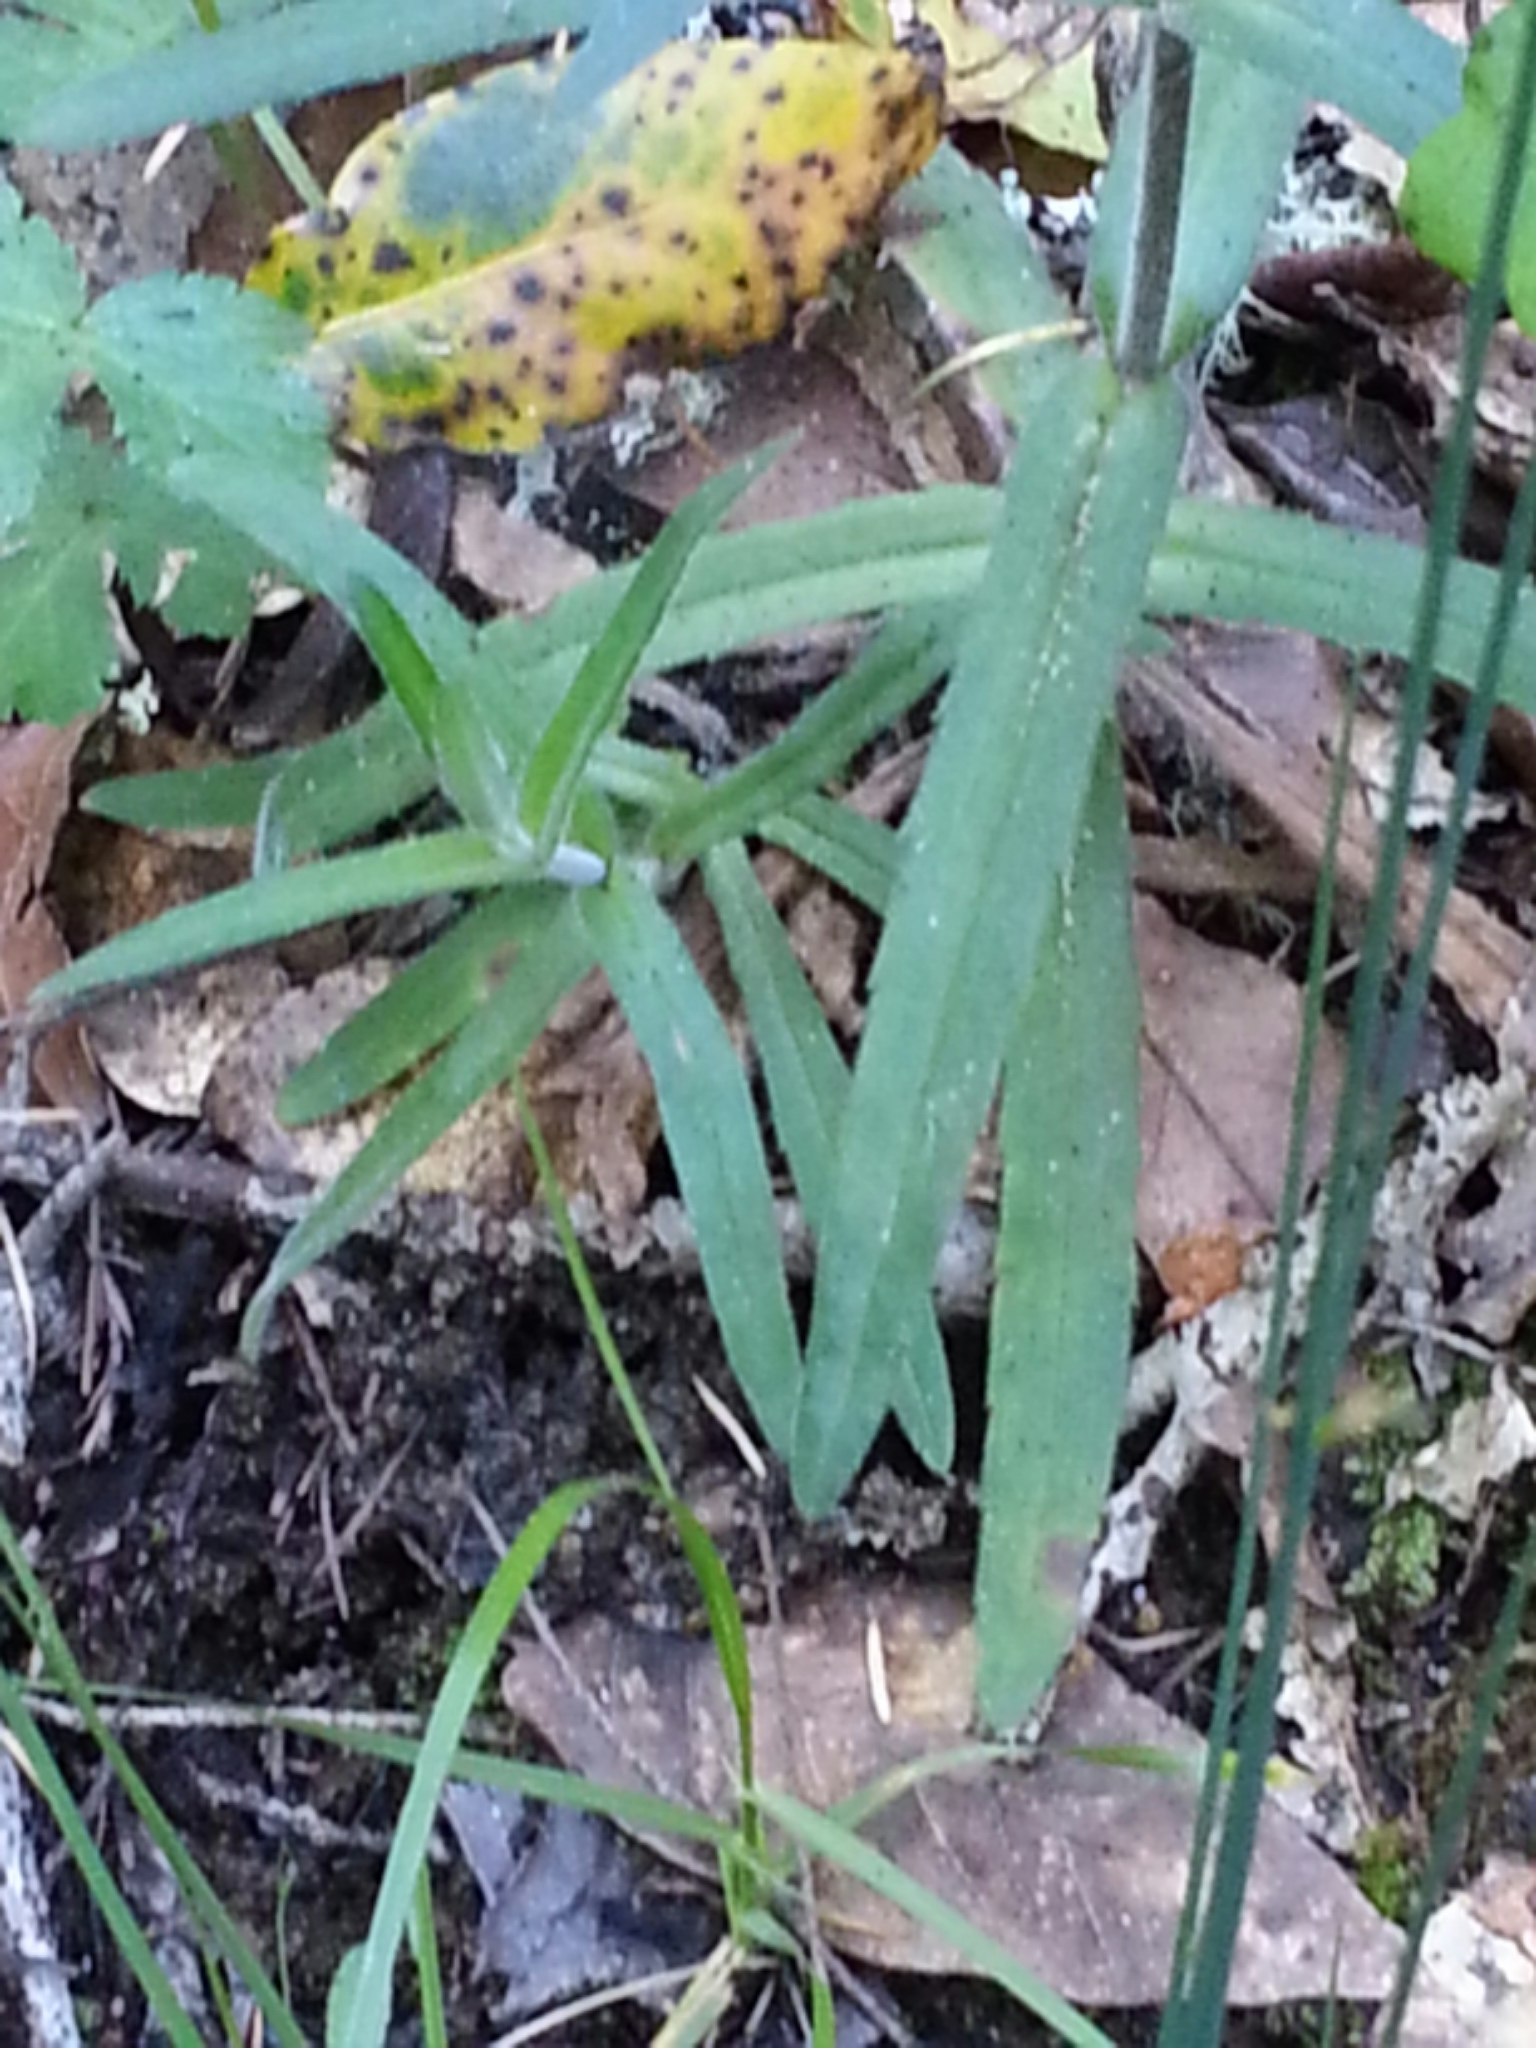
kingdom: Plantae
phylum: Tracheophyta
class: Magnoliopsida
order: Asterales
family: Asteraceae
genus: Anisocarpus
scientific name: Anisocarpus madioides
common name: Woodland madia
